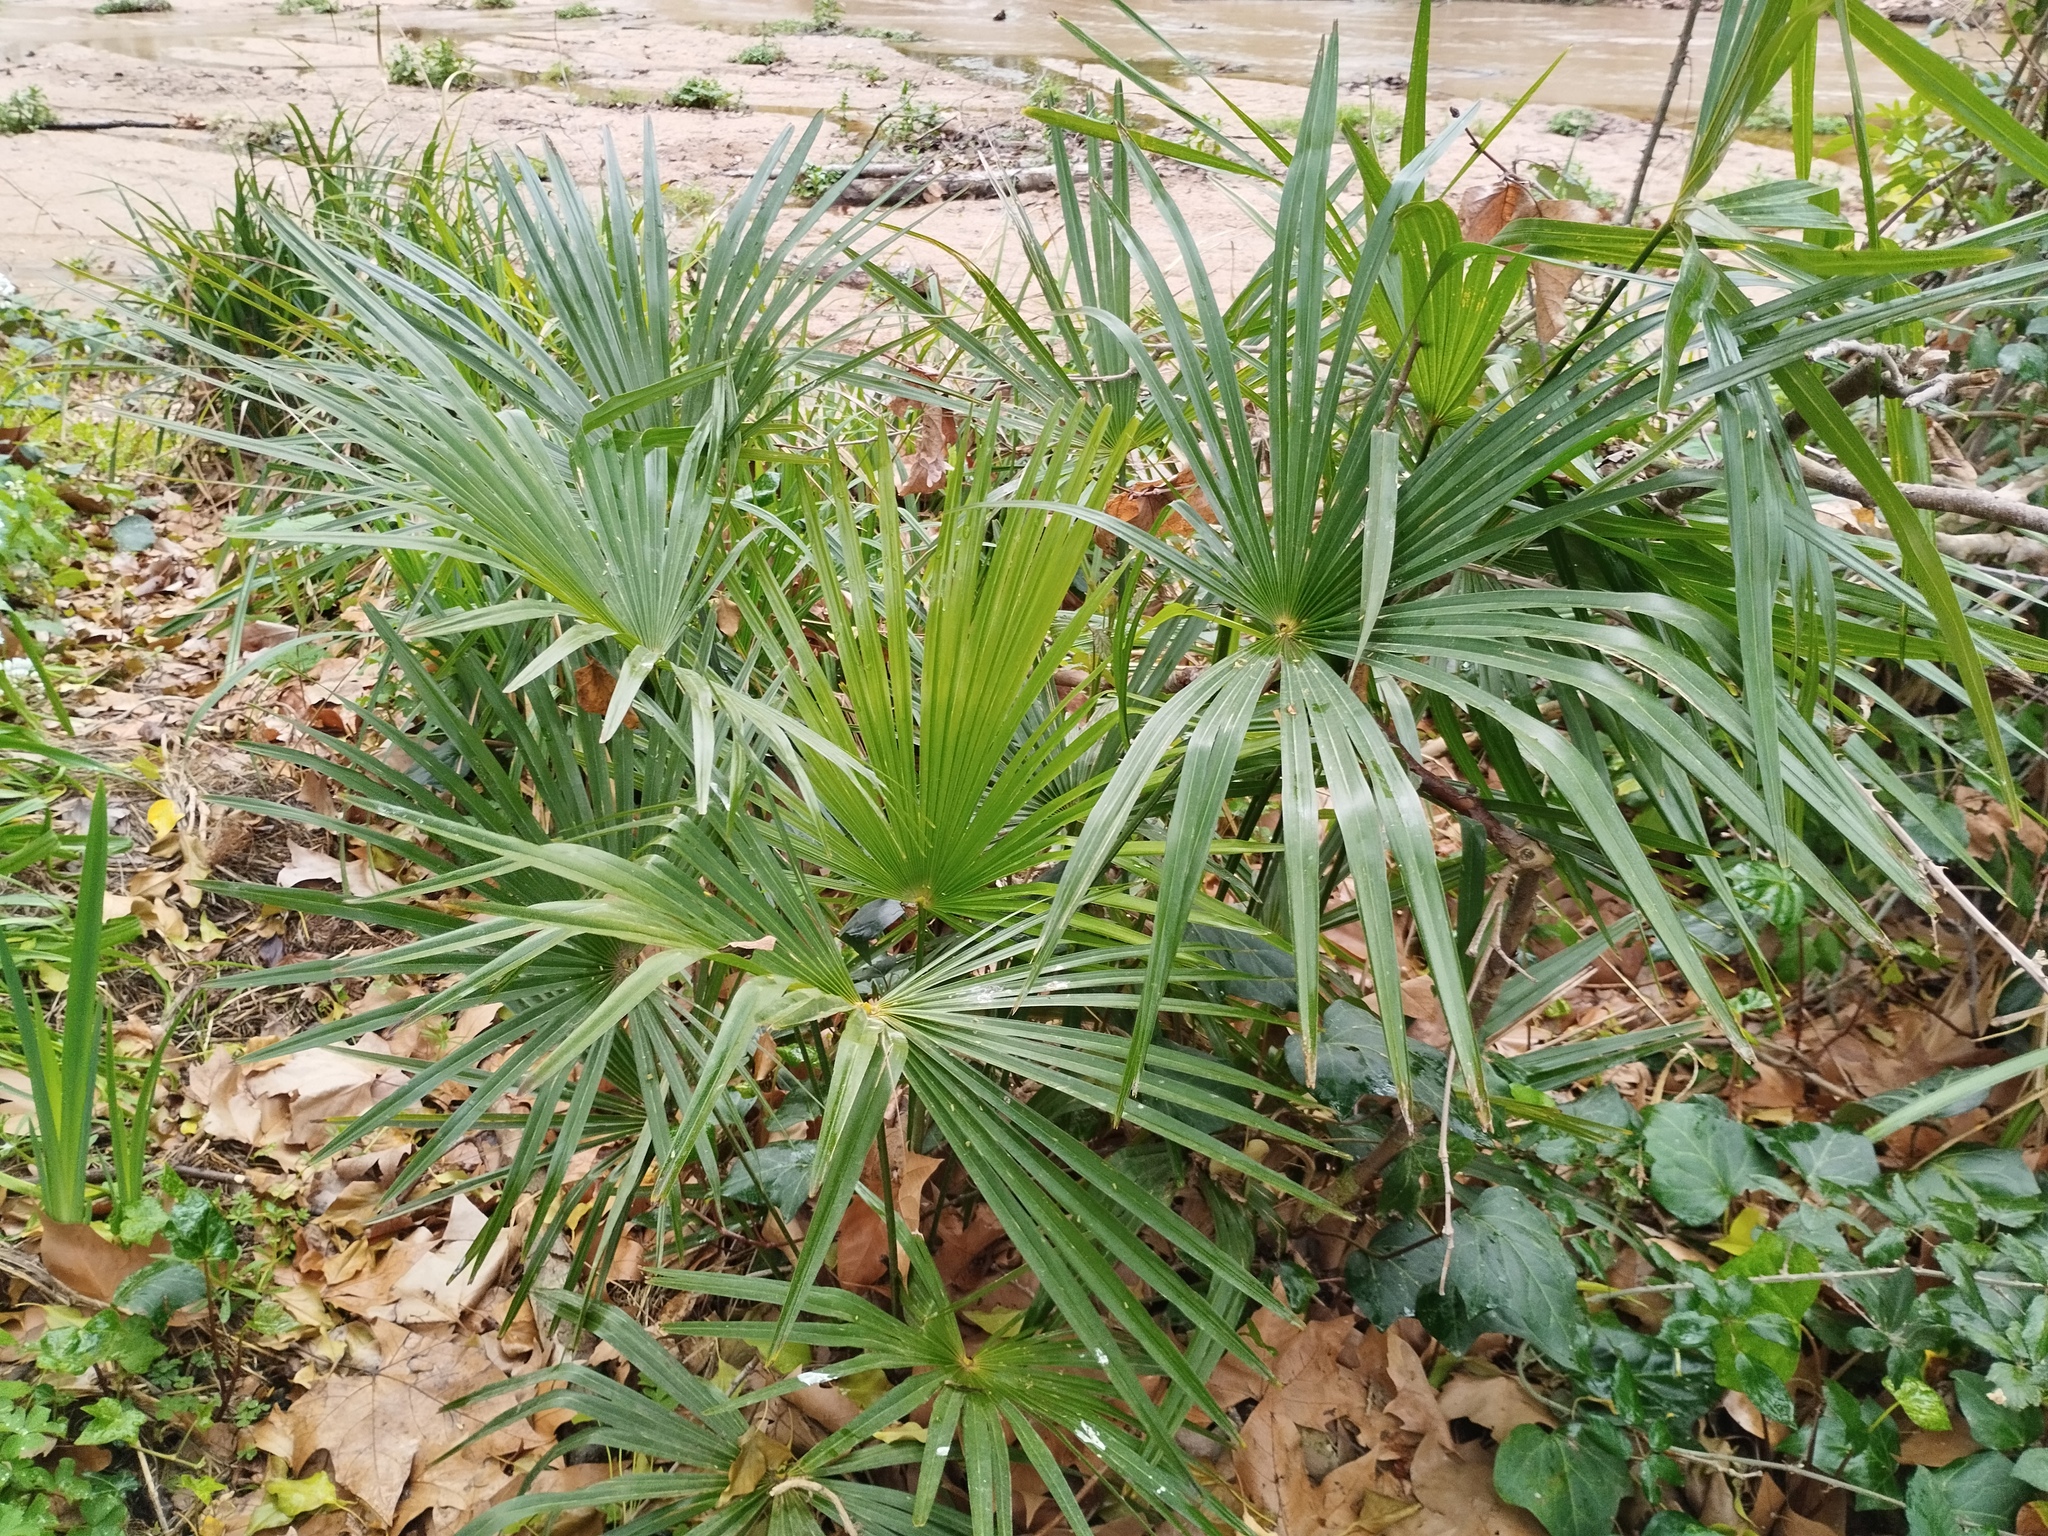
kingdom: Plantae
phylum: Tracheophyta
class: Liliopsida
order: Arecales
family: Arecaceae
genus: Trachycarpus
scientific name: Trachycarpus fortunei
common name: Chusan palm
